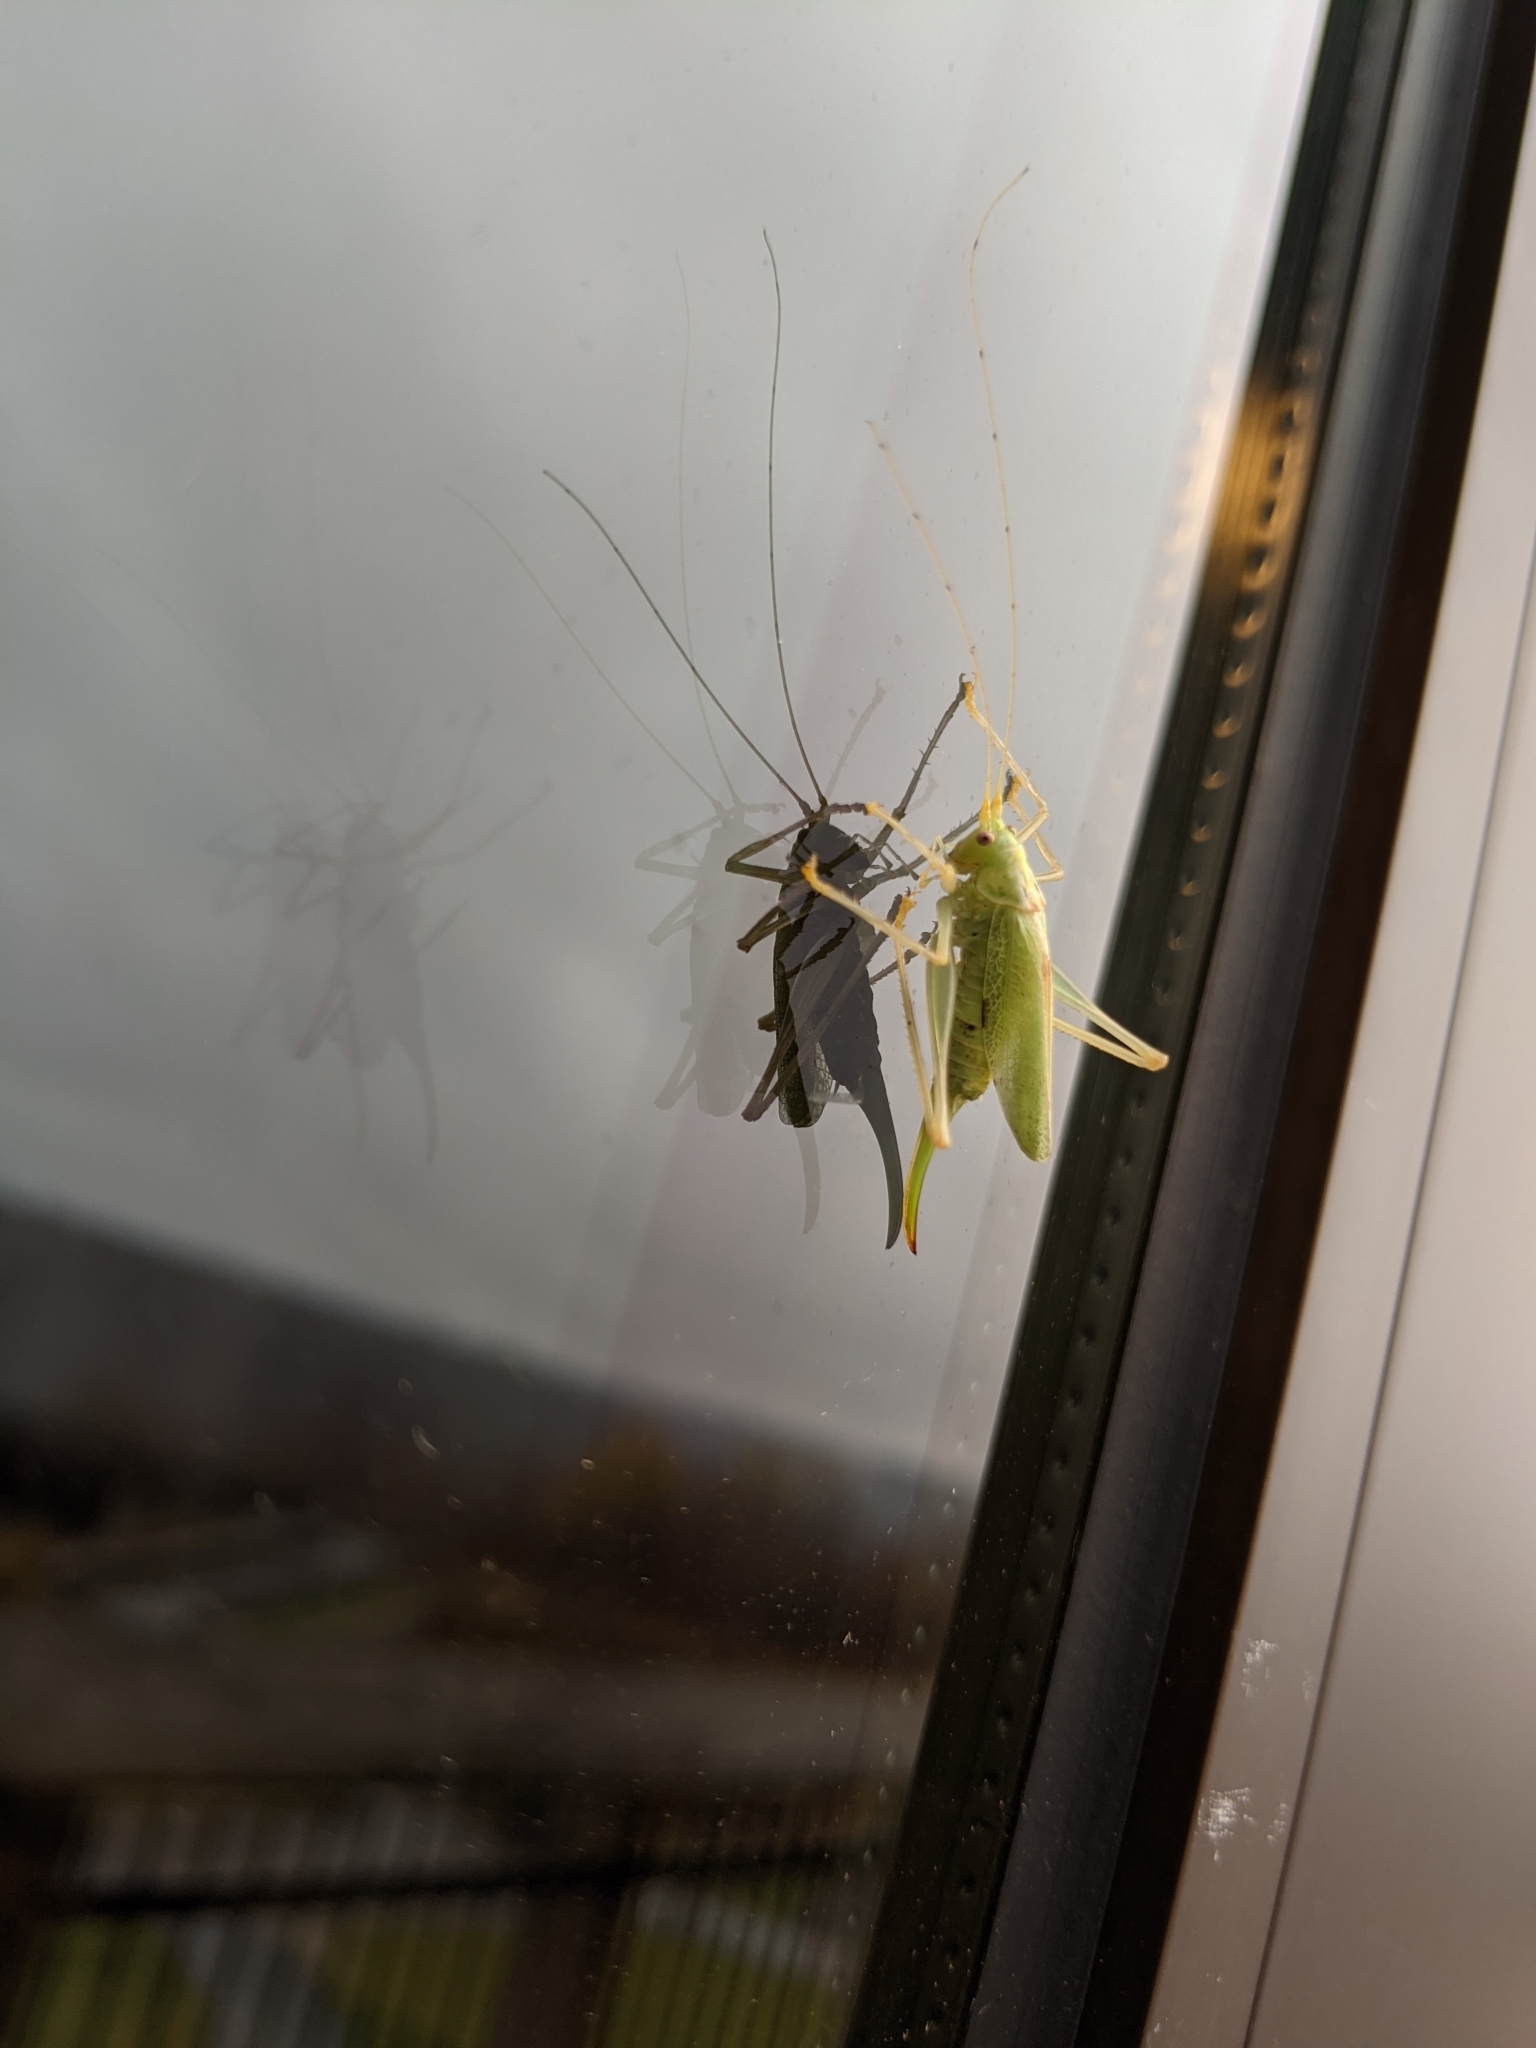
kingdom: Animalia
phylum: Arthropoda
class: Insecta
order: Orthoptera
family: Tettigoniidae
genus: Meconema
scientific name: Meconema thalassinum
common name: Oak bush-cricket
